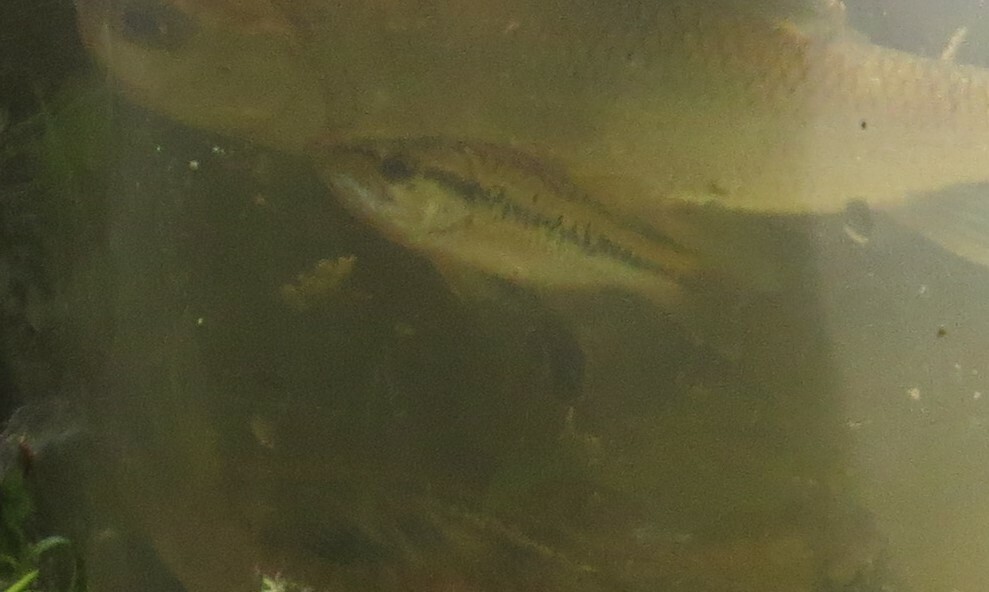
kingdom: Animalia
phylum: Chordata
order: Perciformes
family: Centrarchidae
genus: Micropterus
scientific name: Micropterus
